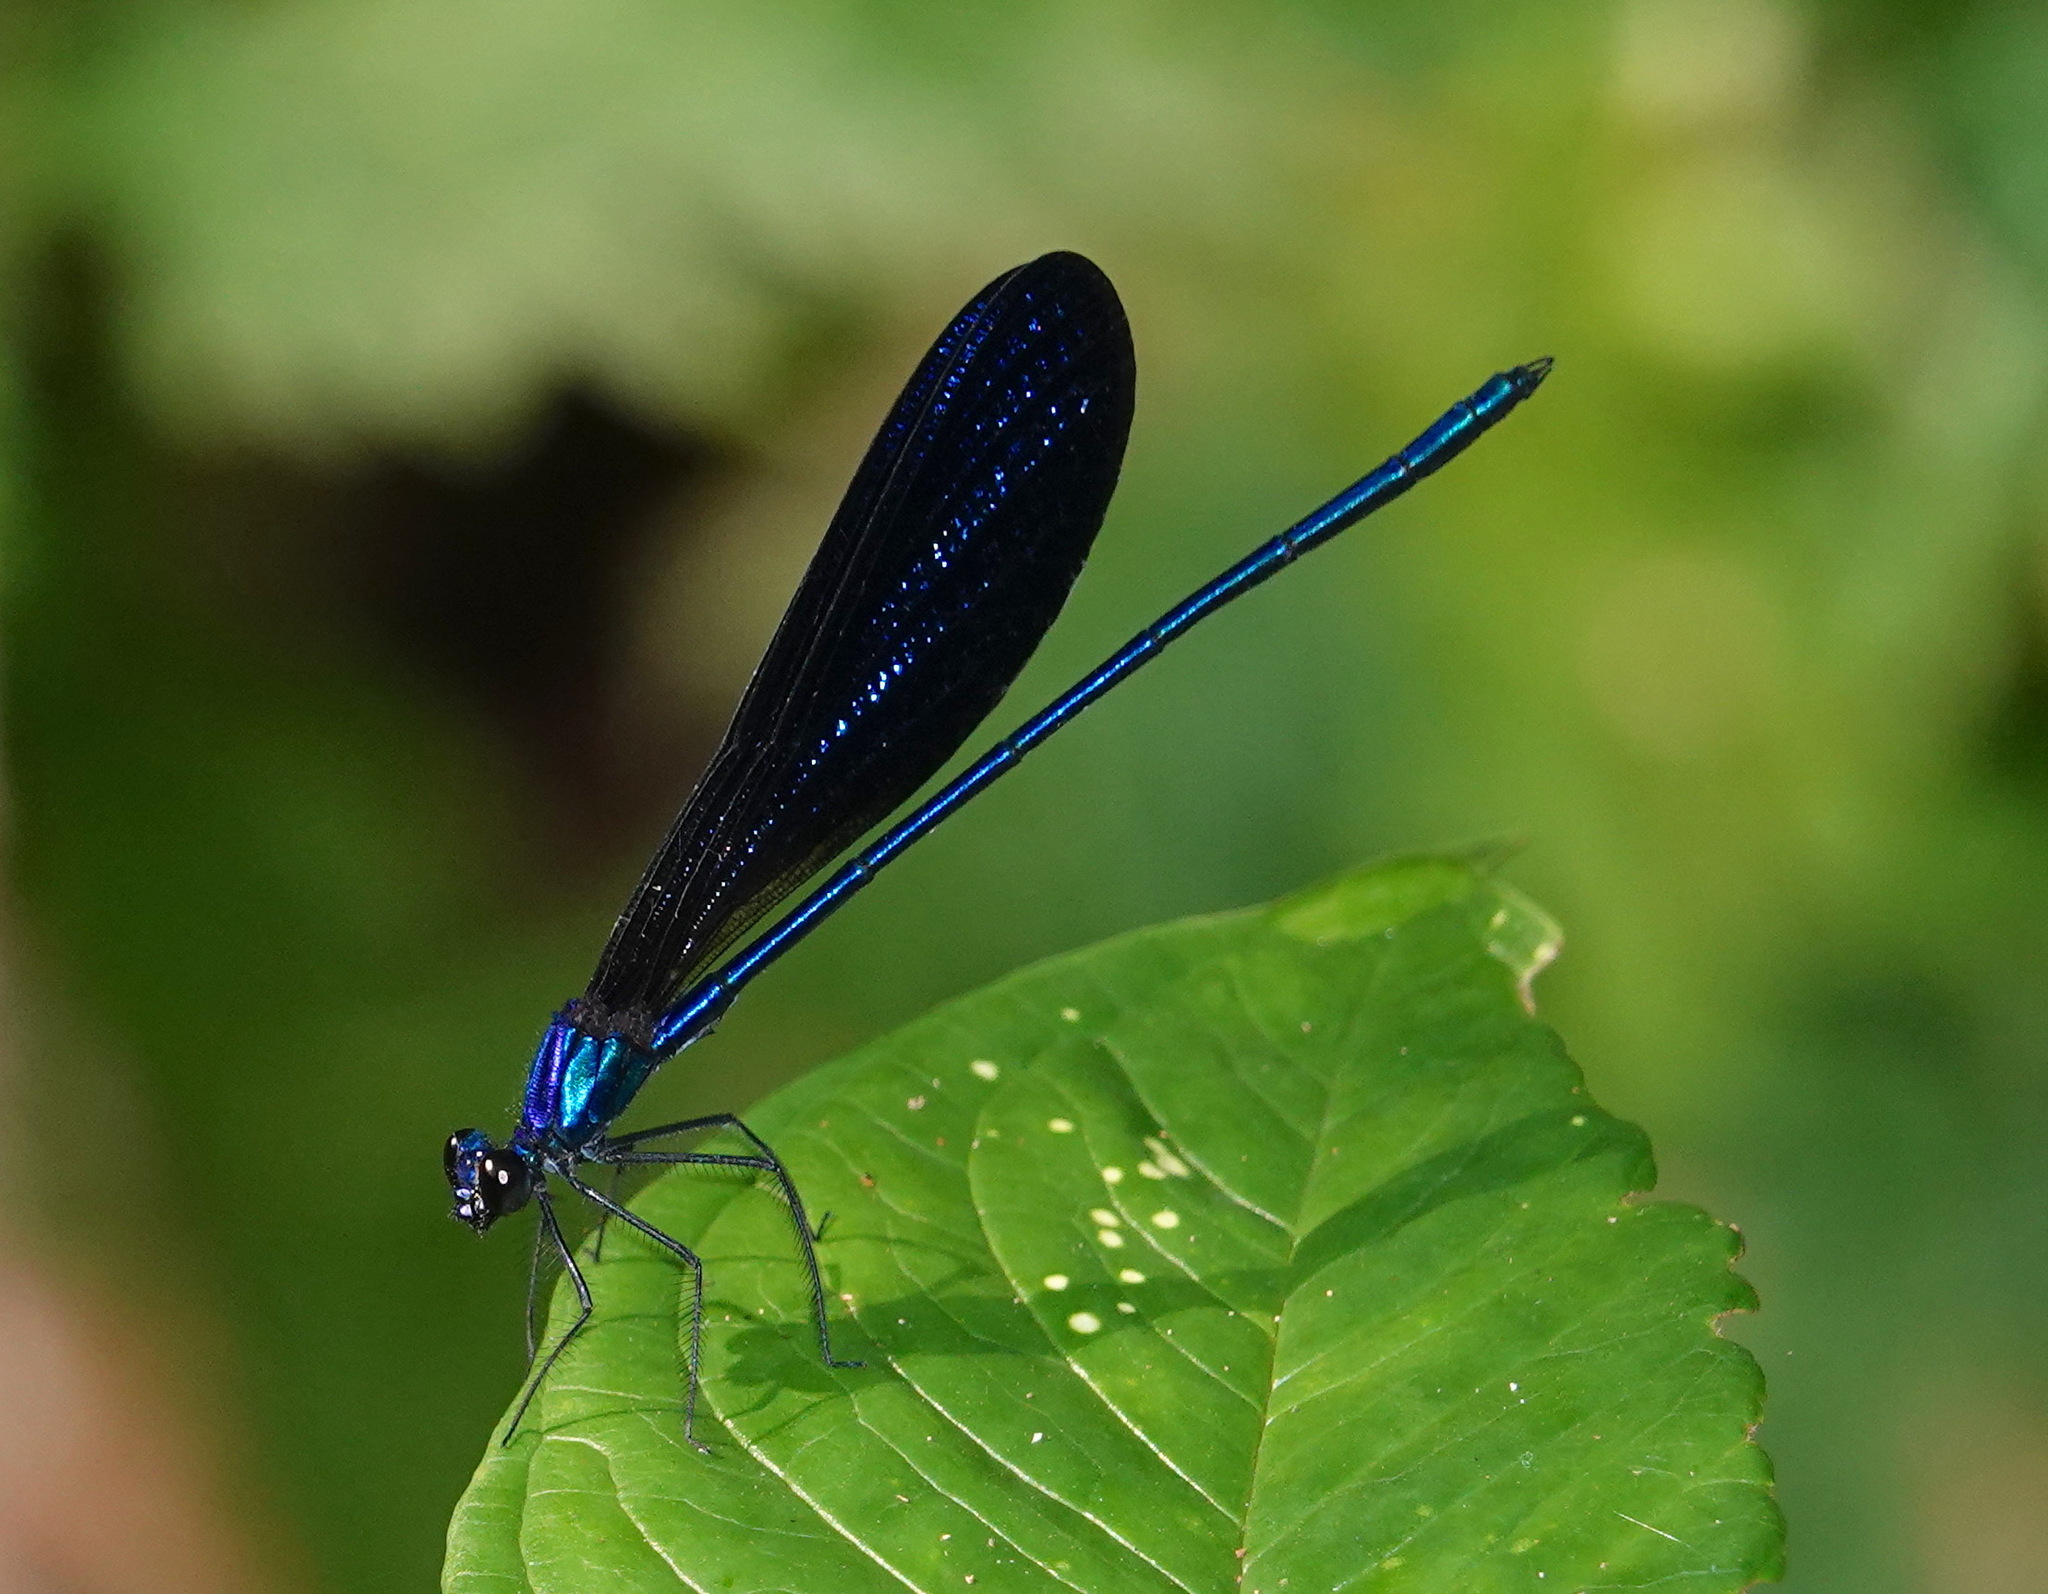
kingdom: Animalia
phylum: Arthropoda
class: Insecta
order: Odonata
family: Calopterygidae
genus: Vestalis
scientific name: Vestalis luctuosa
